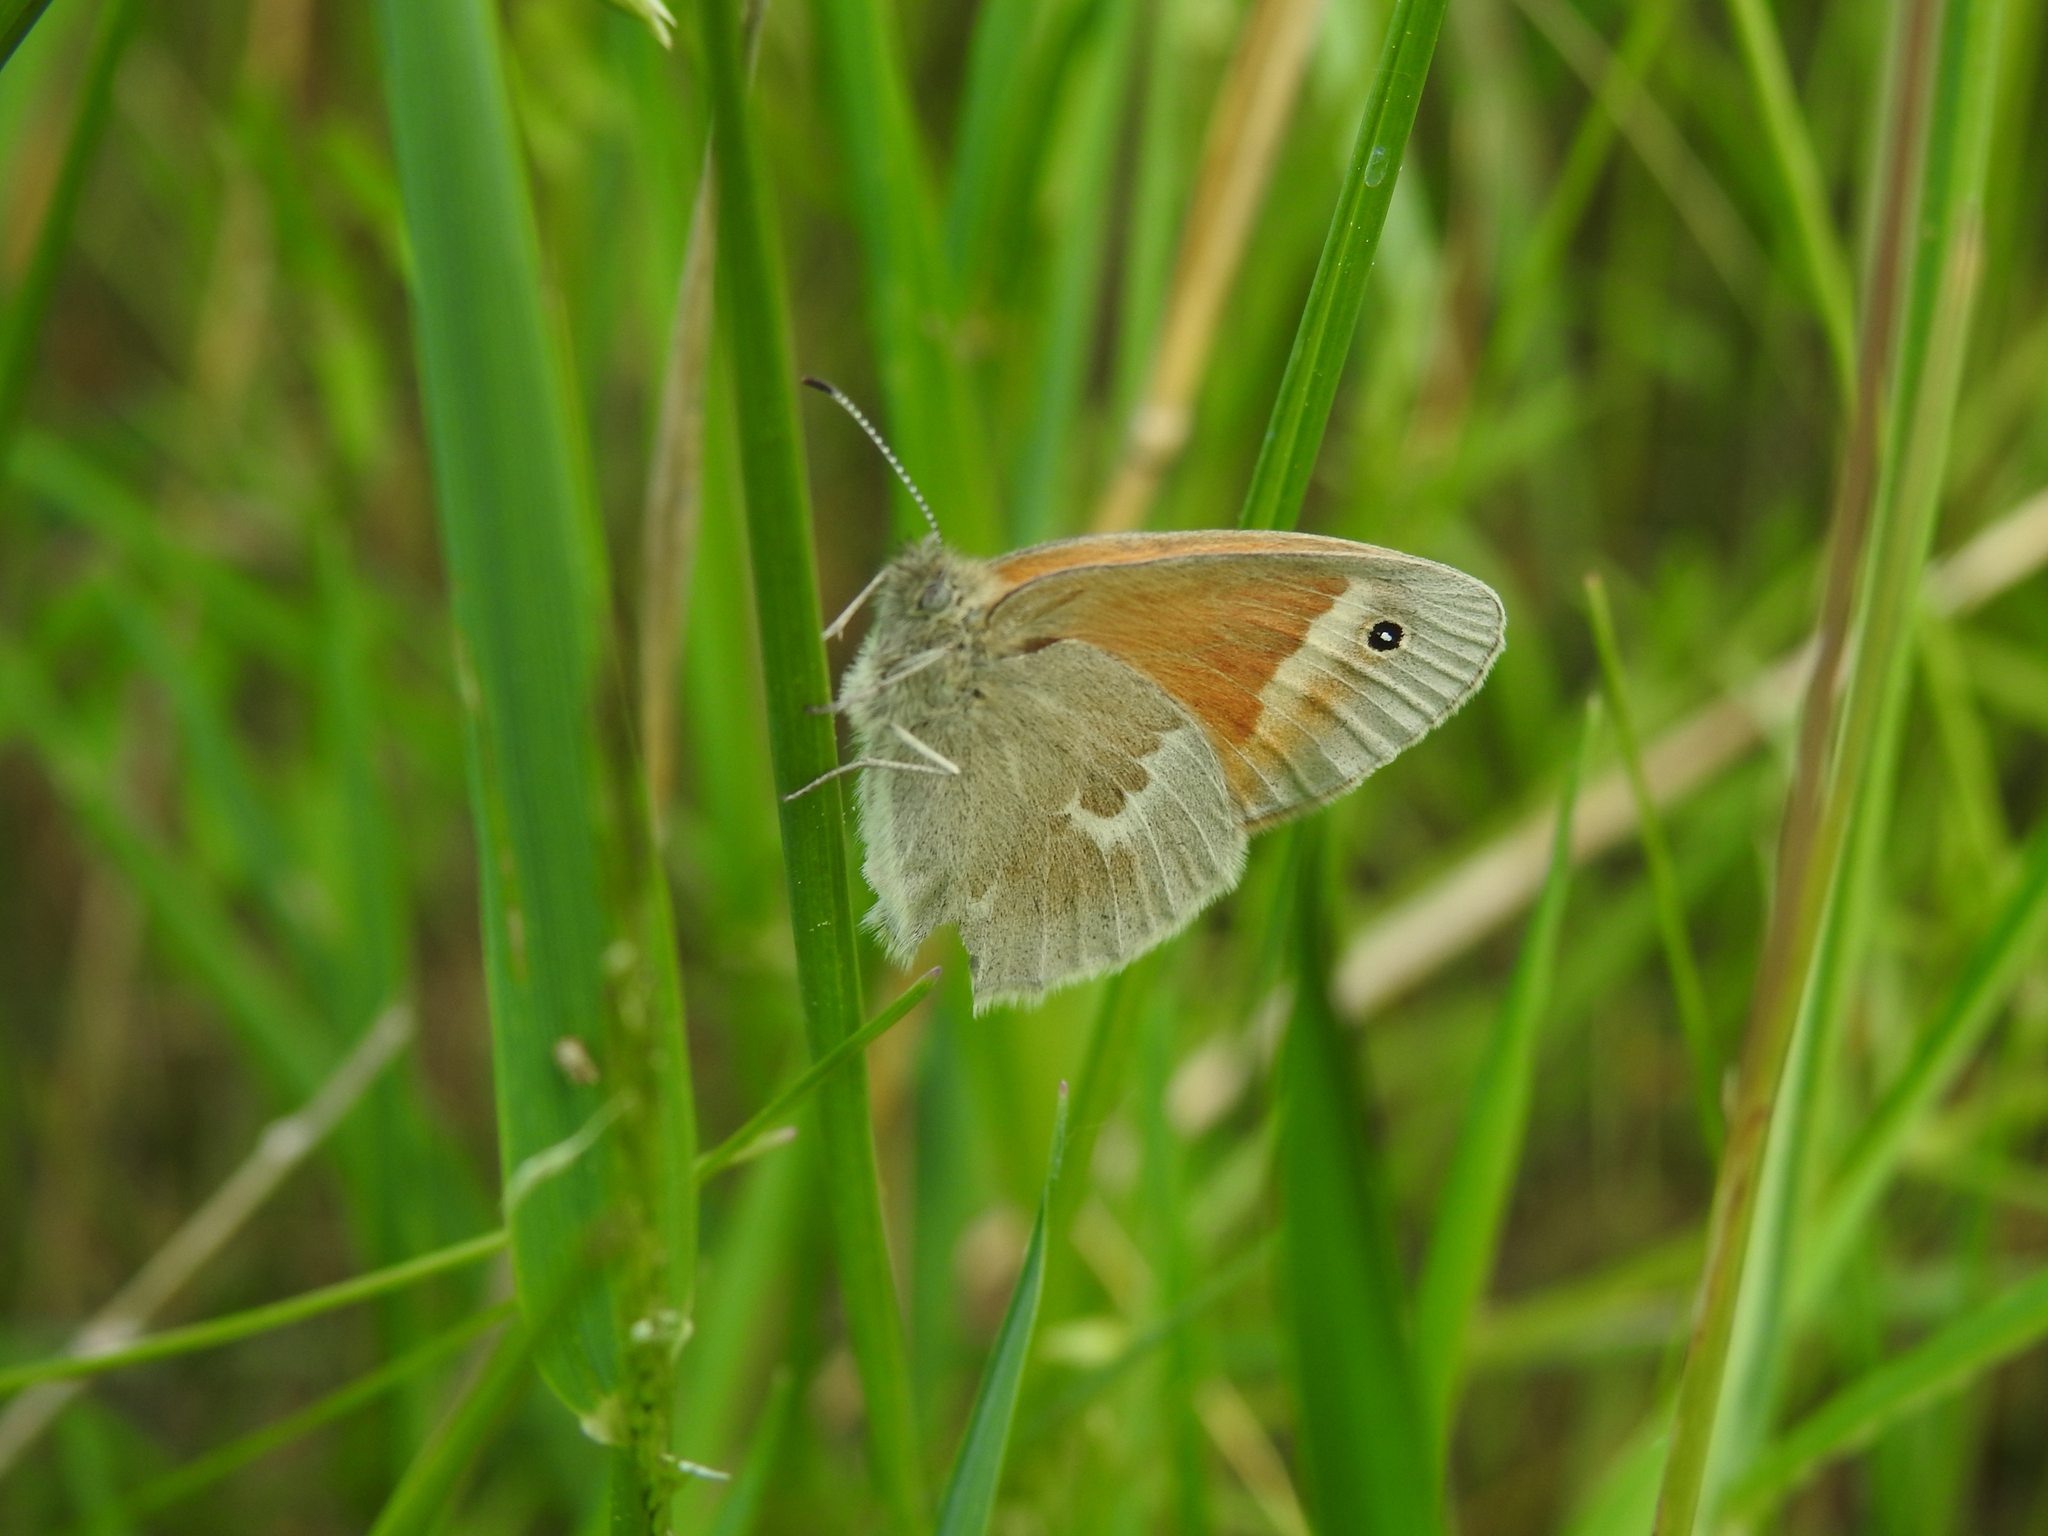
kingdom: Animalia
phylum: Arthropoda
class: Insecta
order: Lepidoptera
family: Nymphalidae
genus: Coenonympha
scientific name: Coenonympha california
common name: Common ringlet
